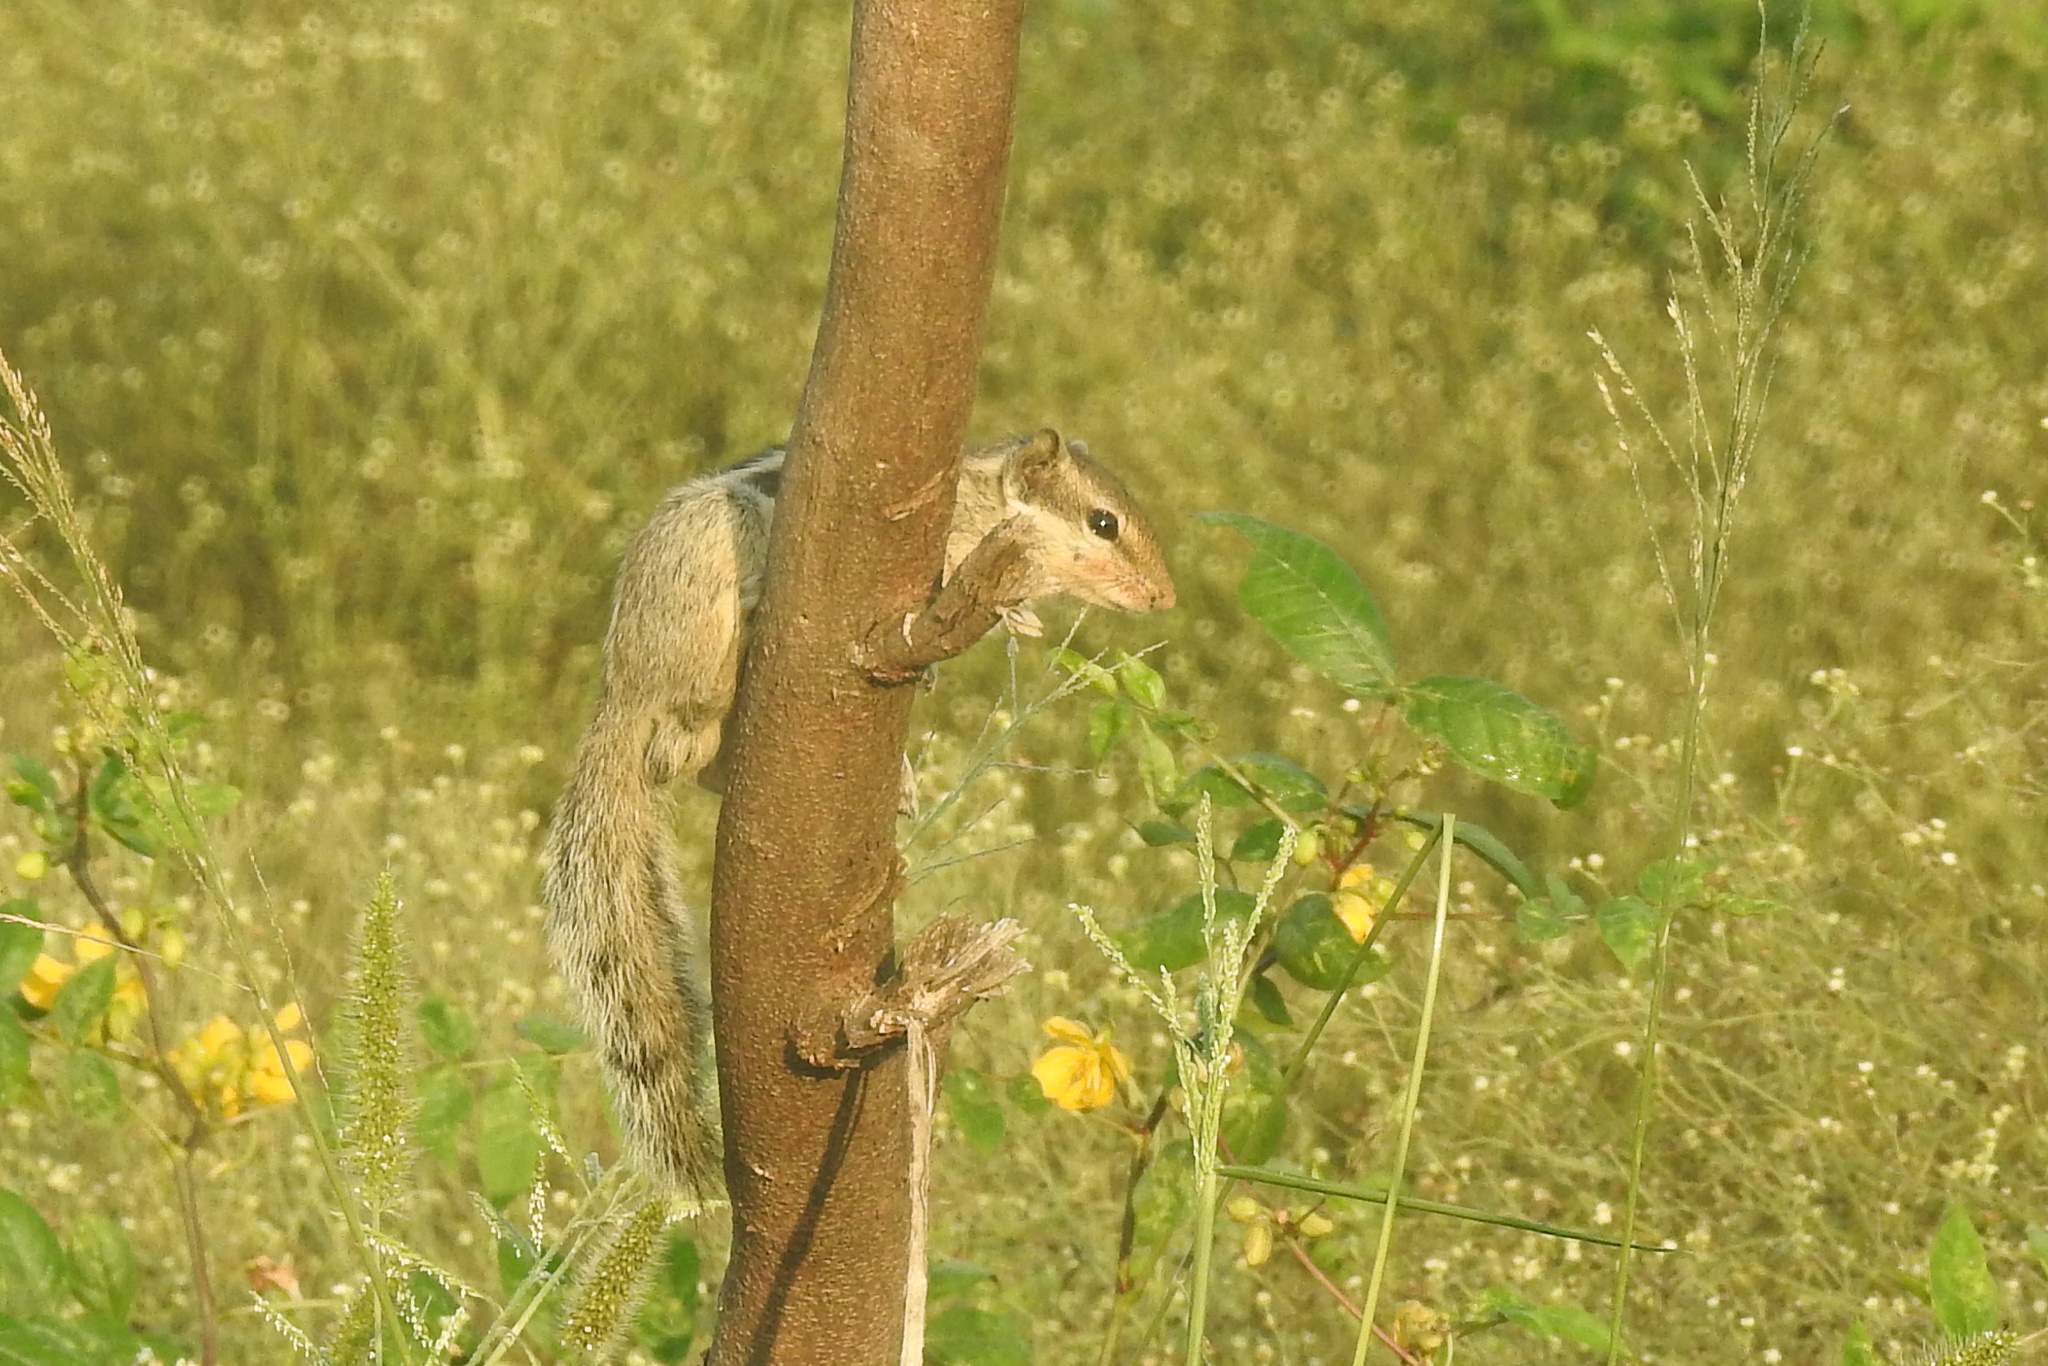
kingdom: Animalia
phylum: Chordata
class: Mammalia
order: Rodentia
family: Sciuridae
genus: Funambulus
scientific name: Funambulus pennantii
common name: Northern palm squirrel
